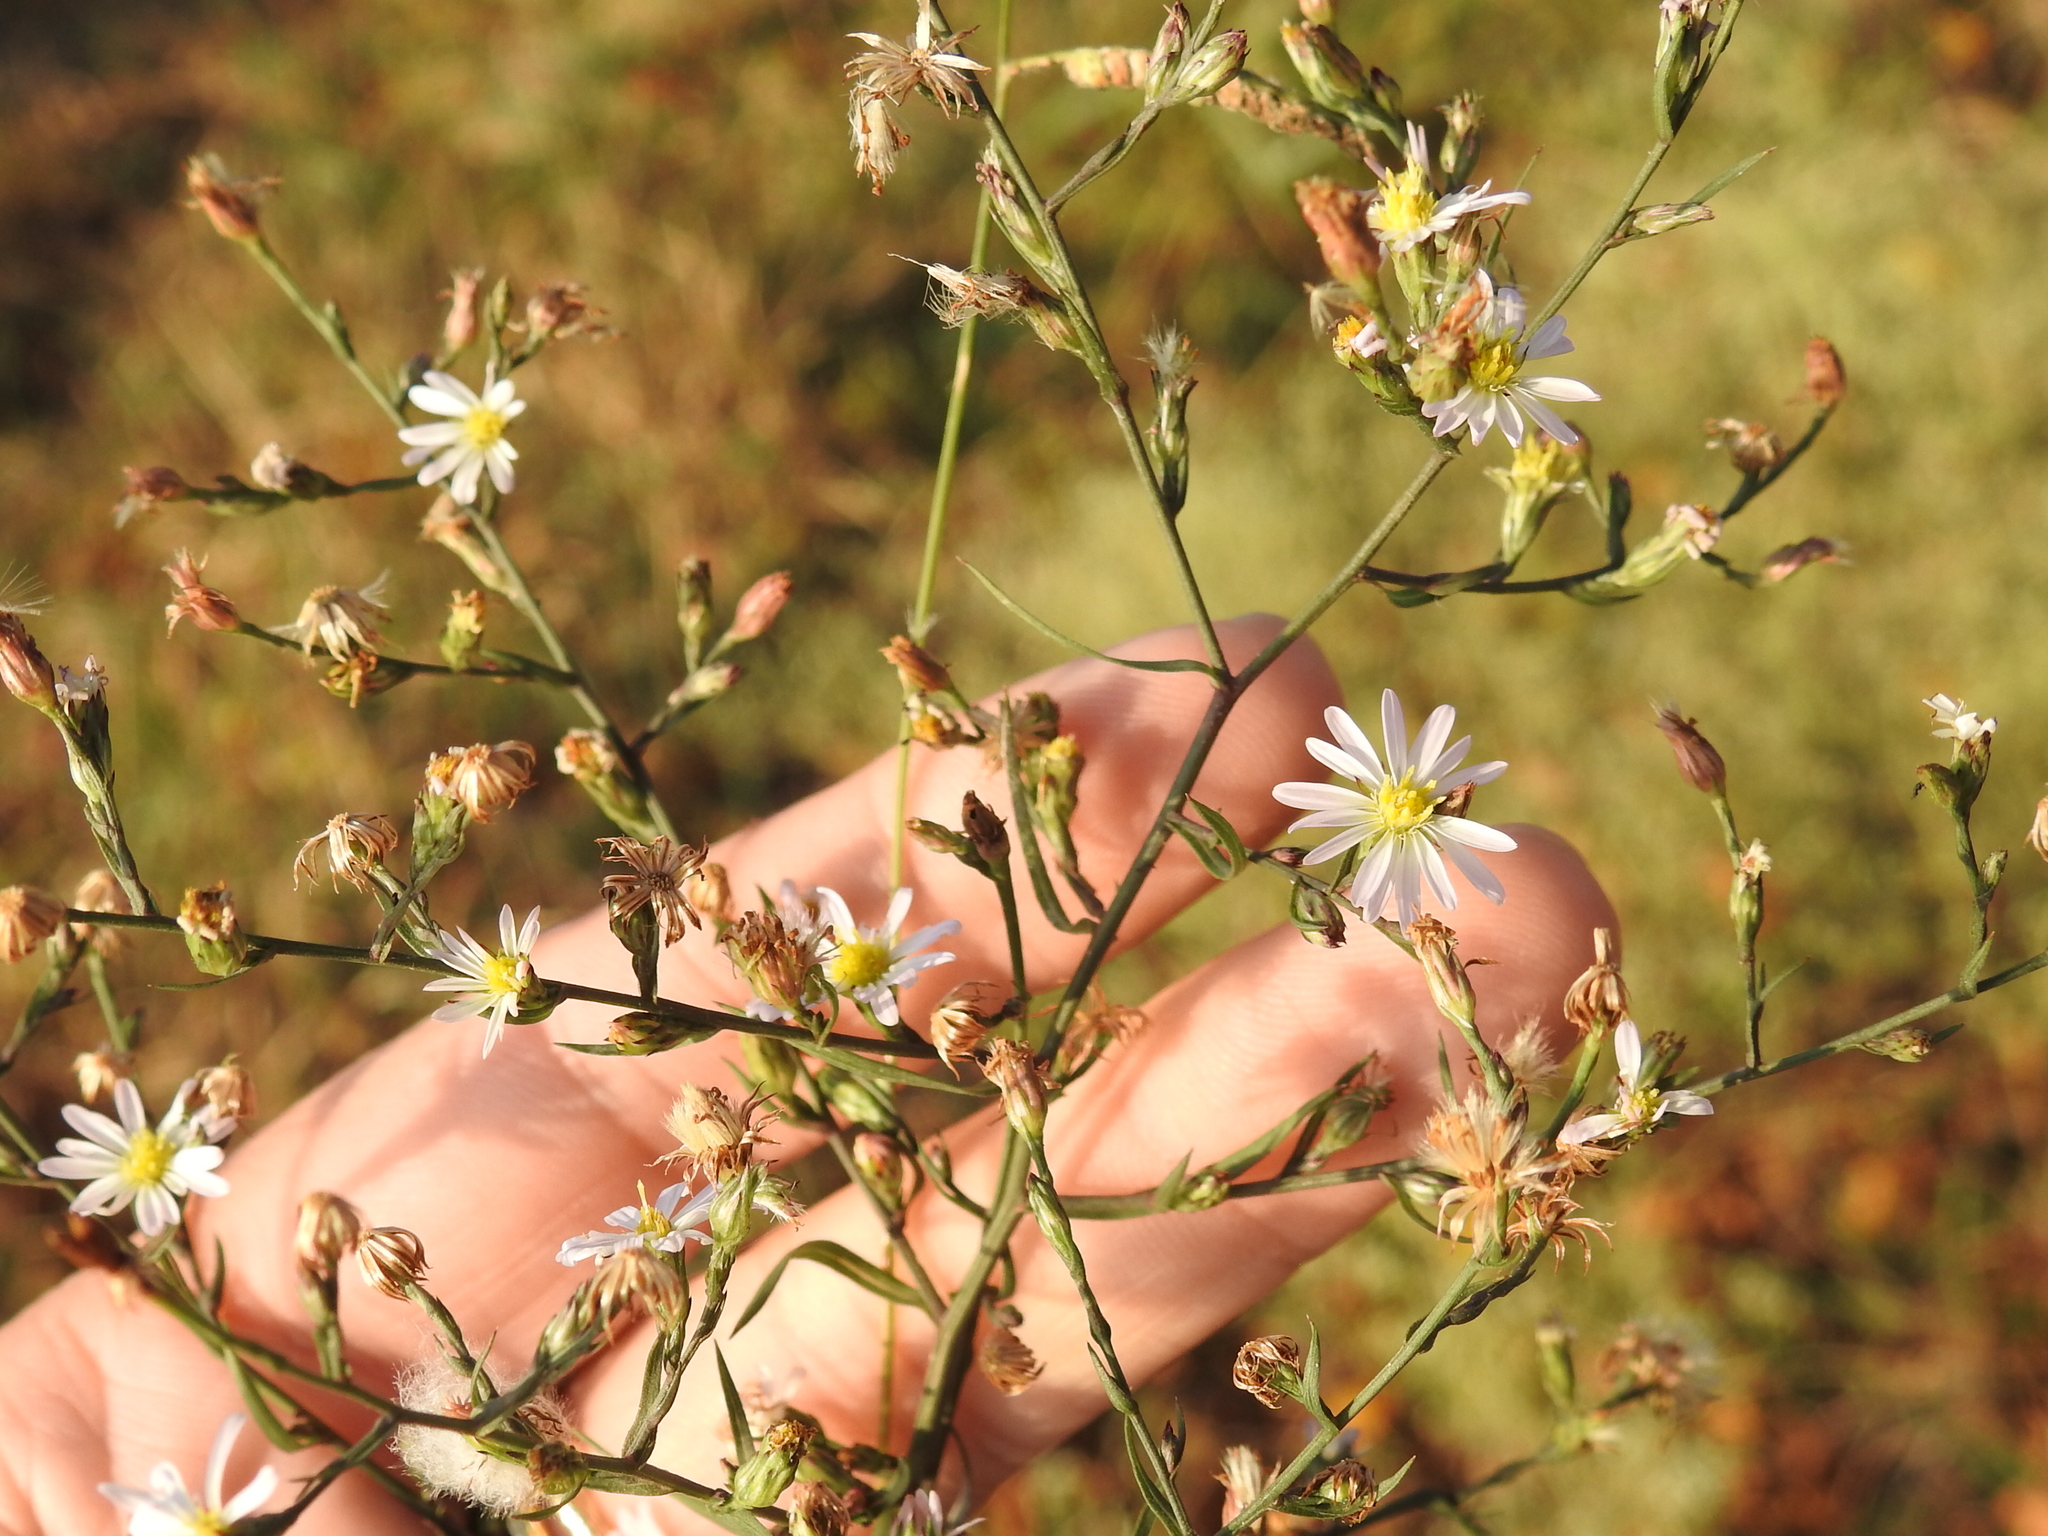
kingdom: Plantae
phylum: Tracheophyta
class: Magnoliopsida
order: Asterales
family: Asteraceae
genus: Symphyotrichum
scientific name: Symphyotrichum divaricatum
